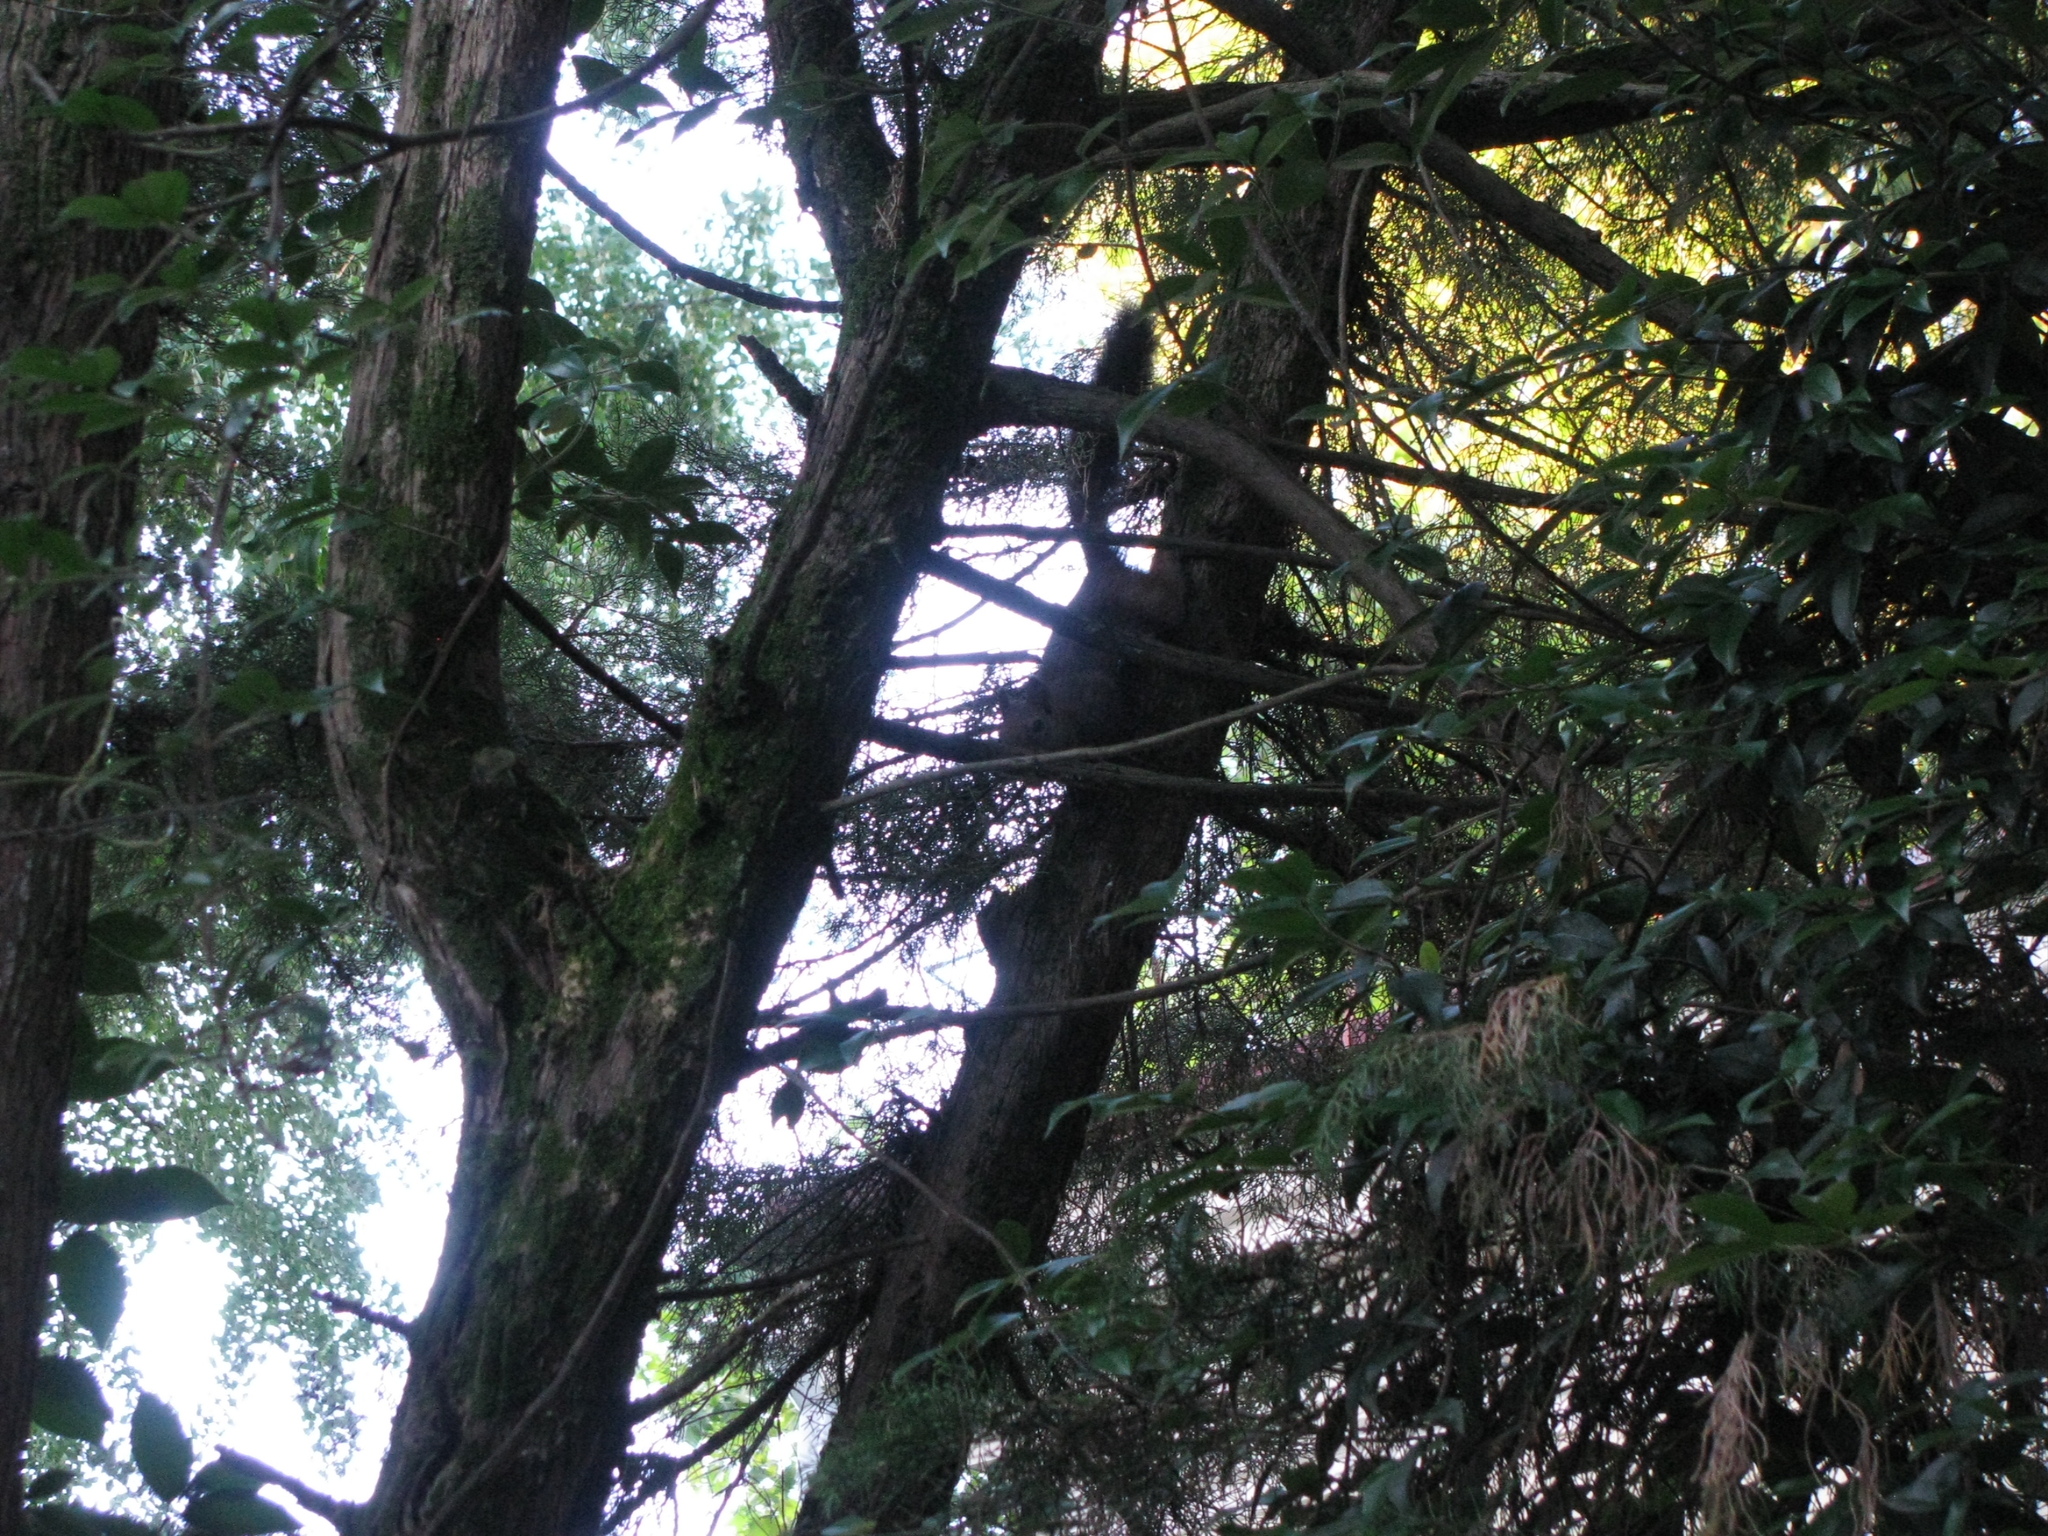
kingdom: Animalia
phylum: Chordata
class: Mammalia
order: Rodentia
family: Sciuridae
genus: Sciurus
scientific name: Sciurus vulgaris
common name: Eurasian red squirrel
